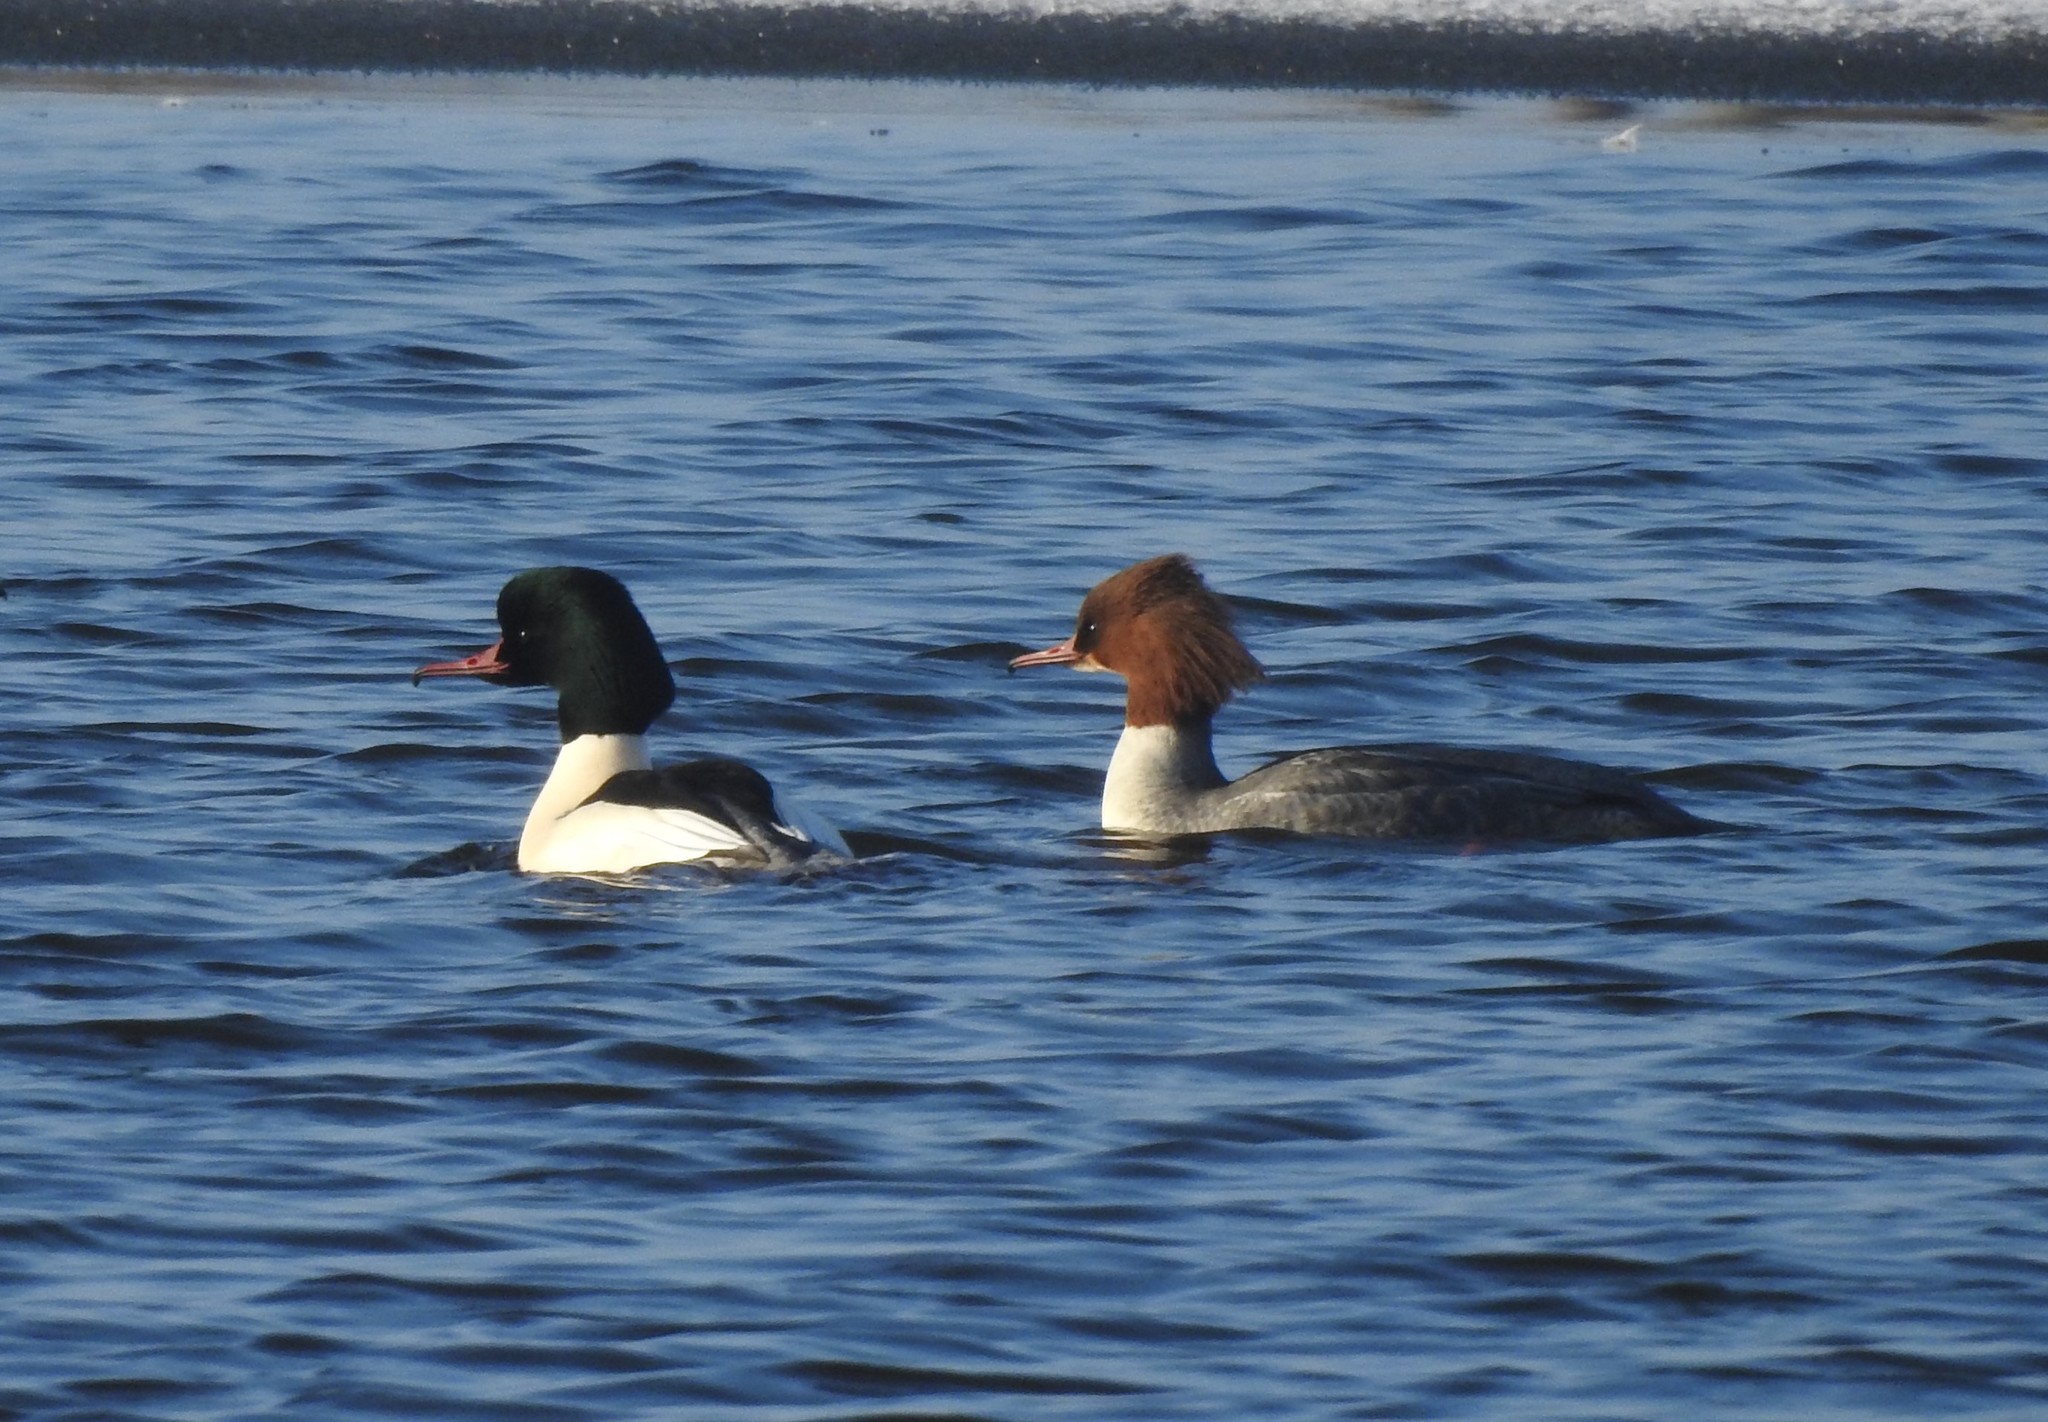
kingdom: Animalia
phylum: Chordata
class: Aves
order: Anseriformes
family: Anatidae
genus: Mergus
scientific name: Mergus merganser
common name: Common merganser
